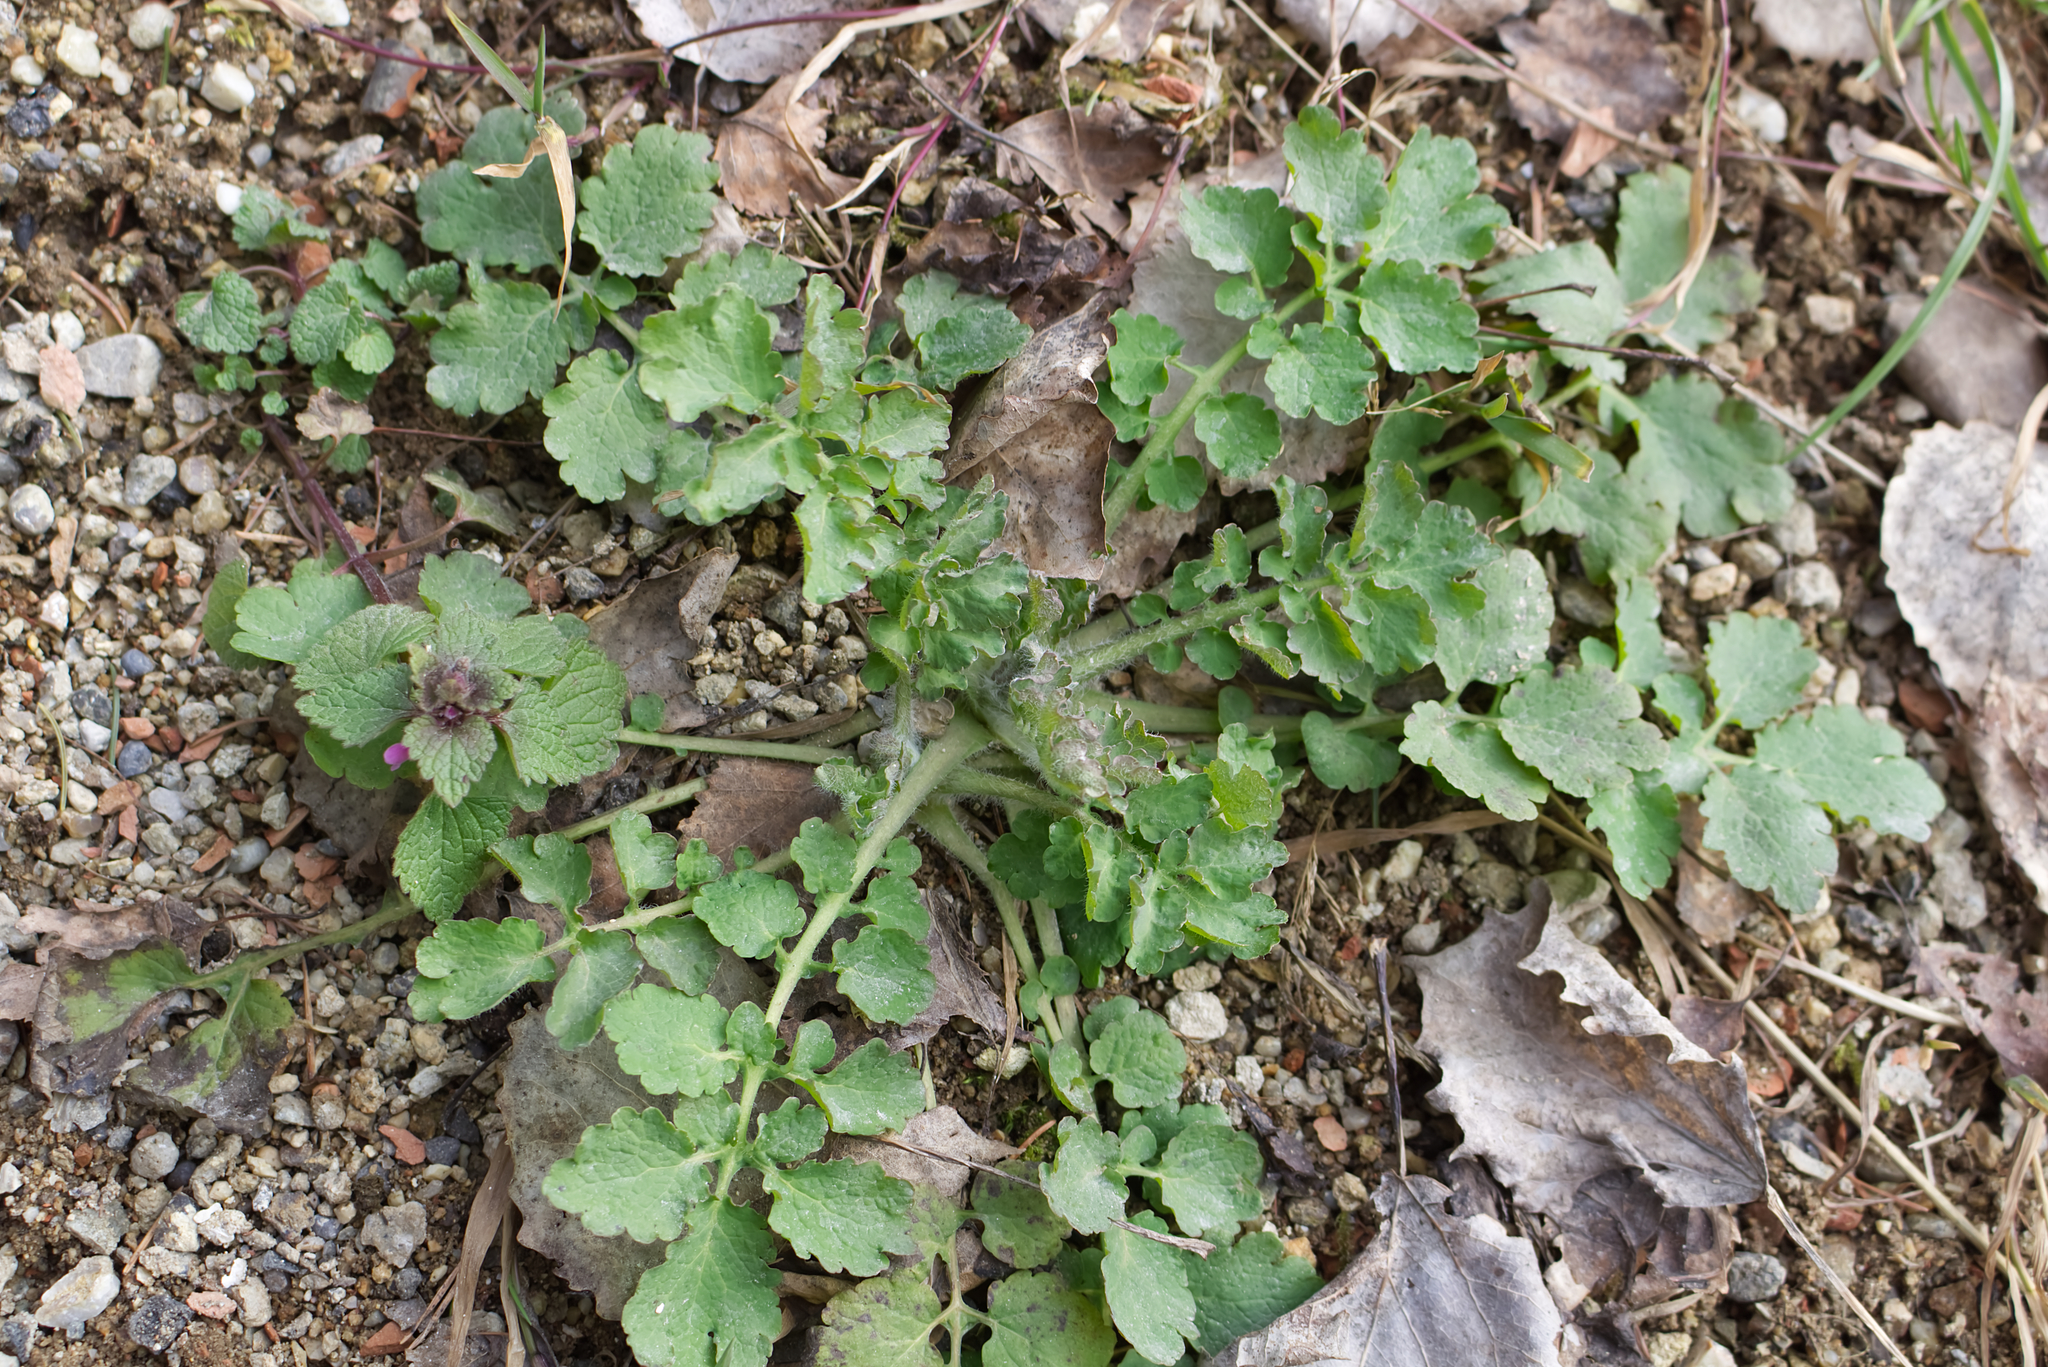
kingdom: Plantae
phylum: Tracheophyta
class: Magnoliopsida
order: Ranunculales
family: Papaveraceae
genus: Chelidonium
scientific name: Chelidonium majus
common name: Greater celandine
